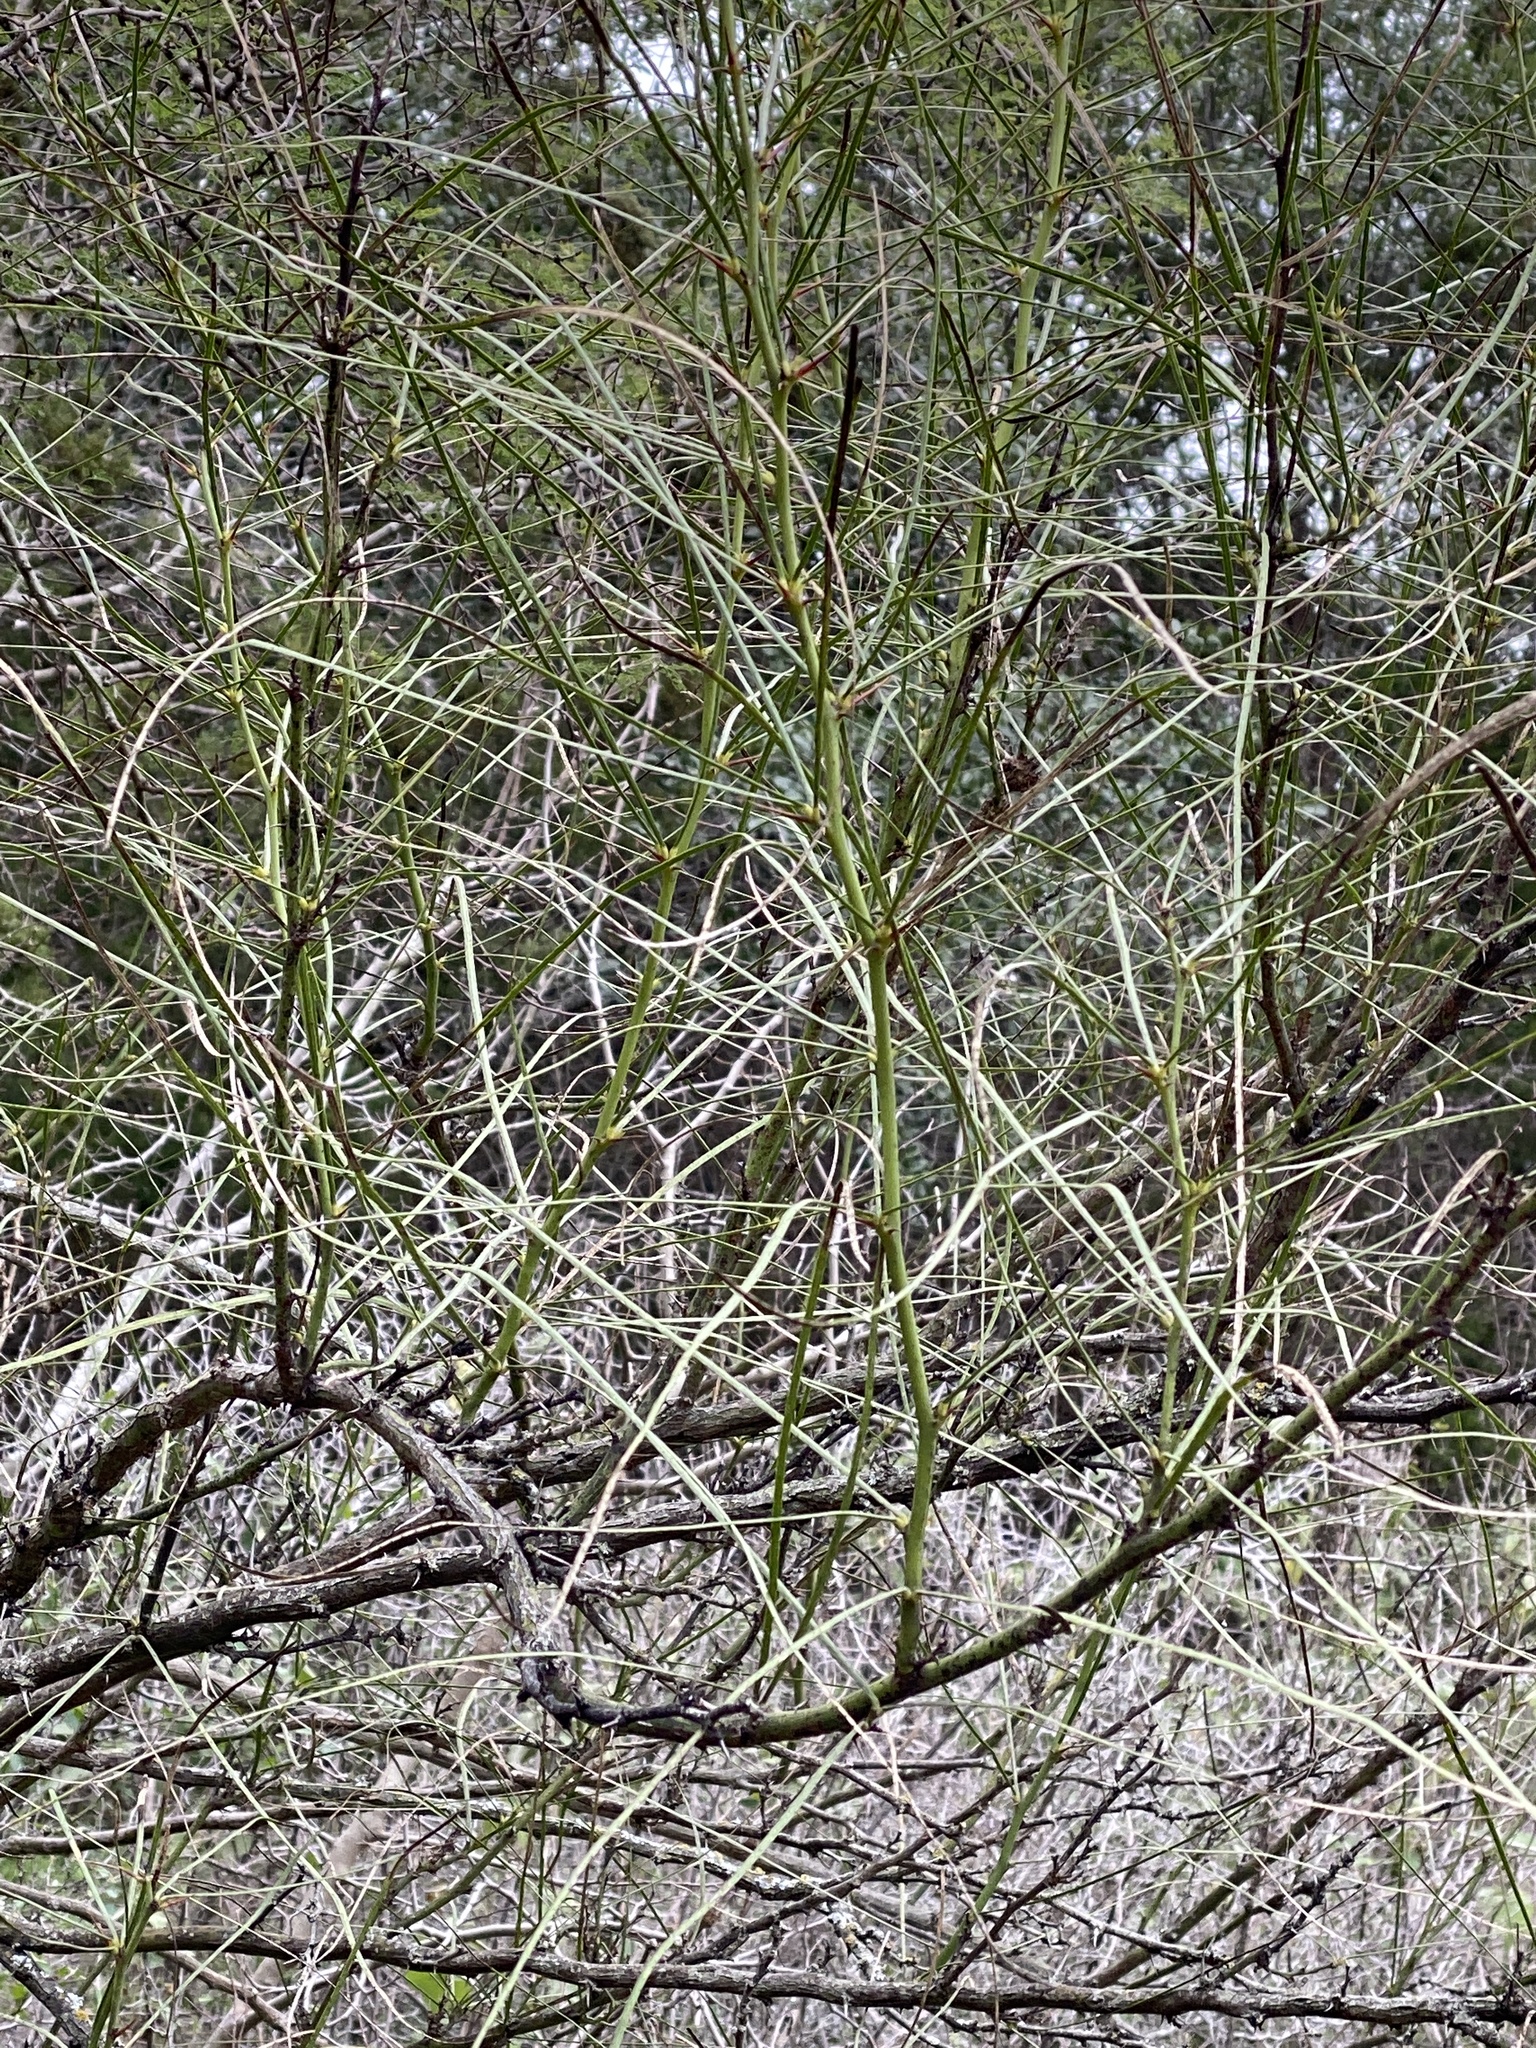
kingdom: Plantae
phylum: Tracheophyta
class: Magnoliopsida
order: Fabales
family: Fabaceae
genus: Parkinsonia
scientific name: Parkinsonia aculeata
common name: Jerusalem thorn
